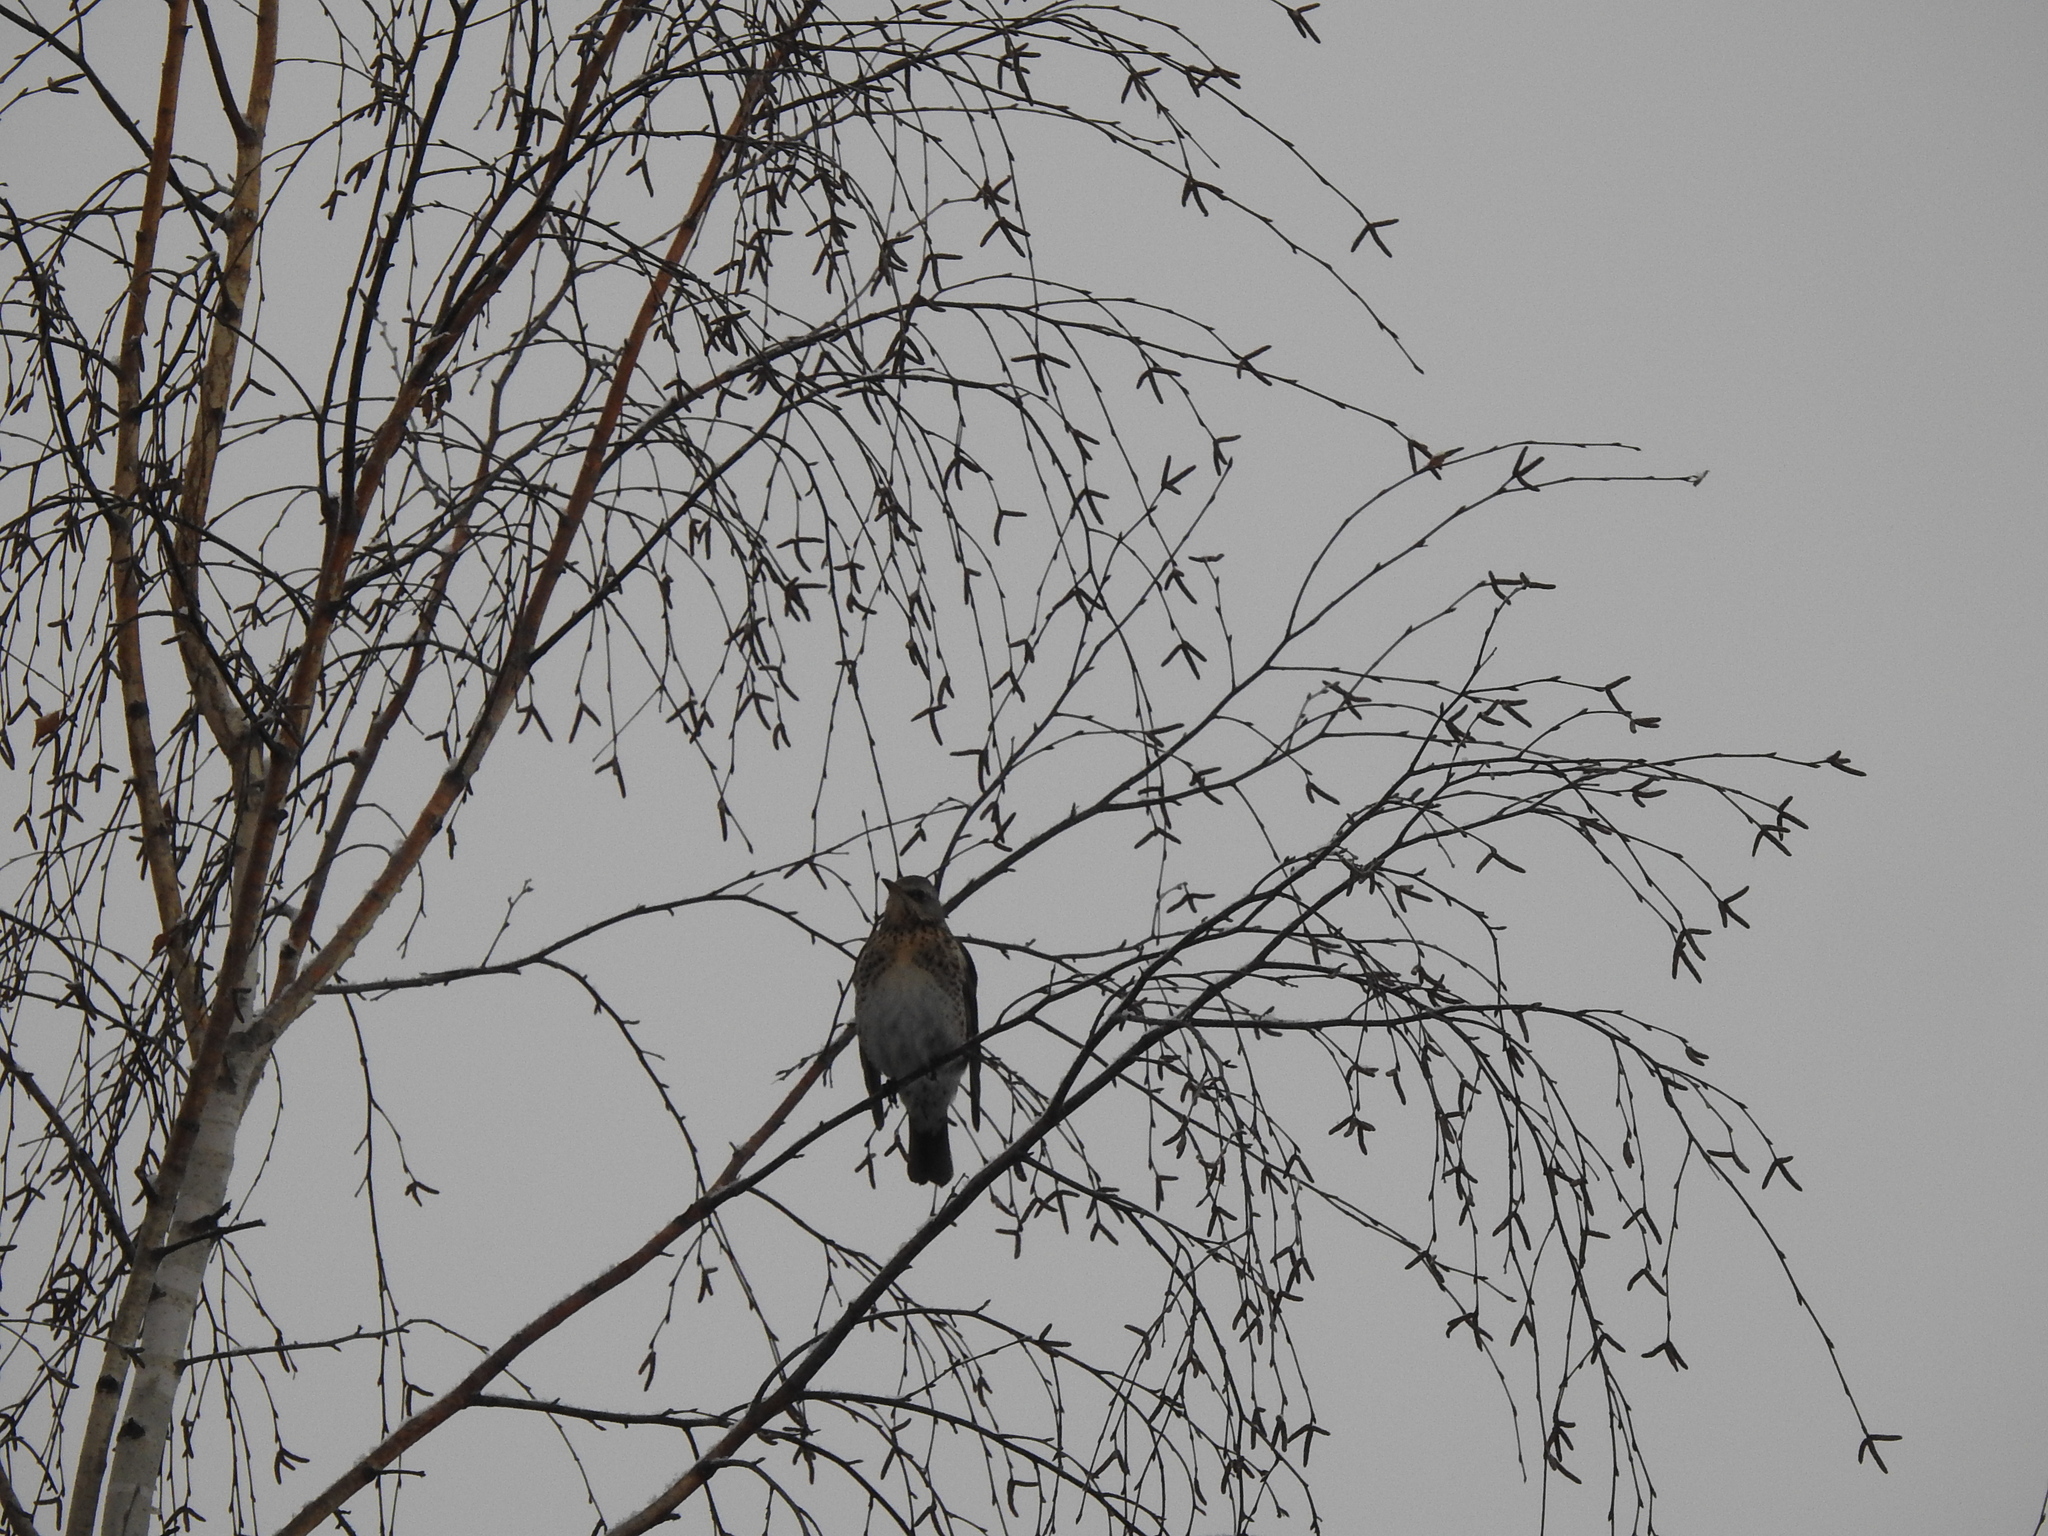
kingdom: Animalia
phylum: Chordata
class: Aves
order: Passeriformes
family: Turdidae
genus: Turdus
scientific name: Turdus pilaris
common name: Fieldfare
